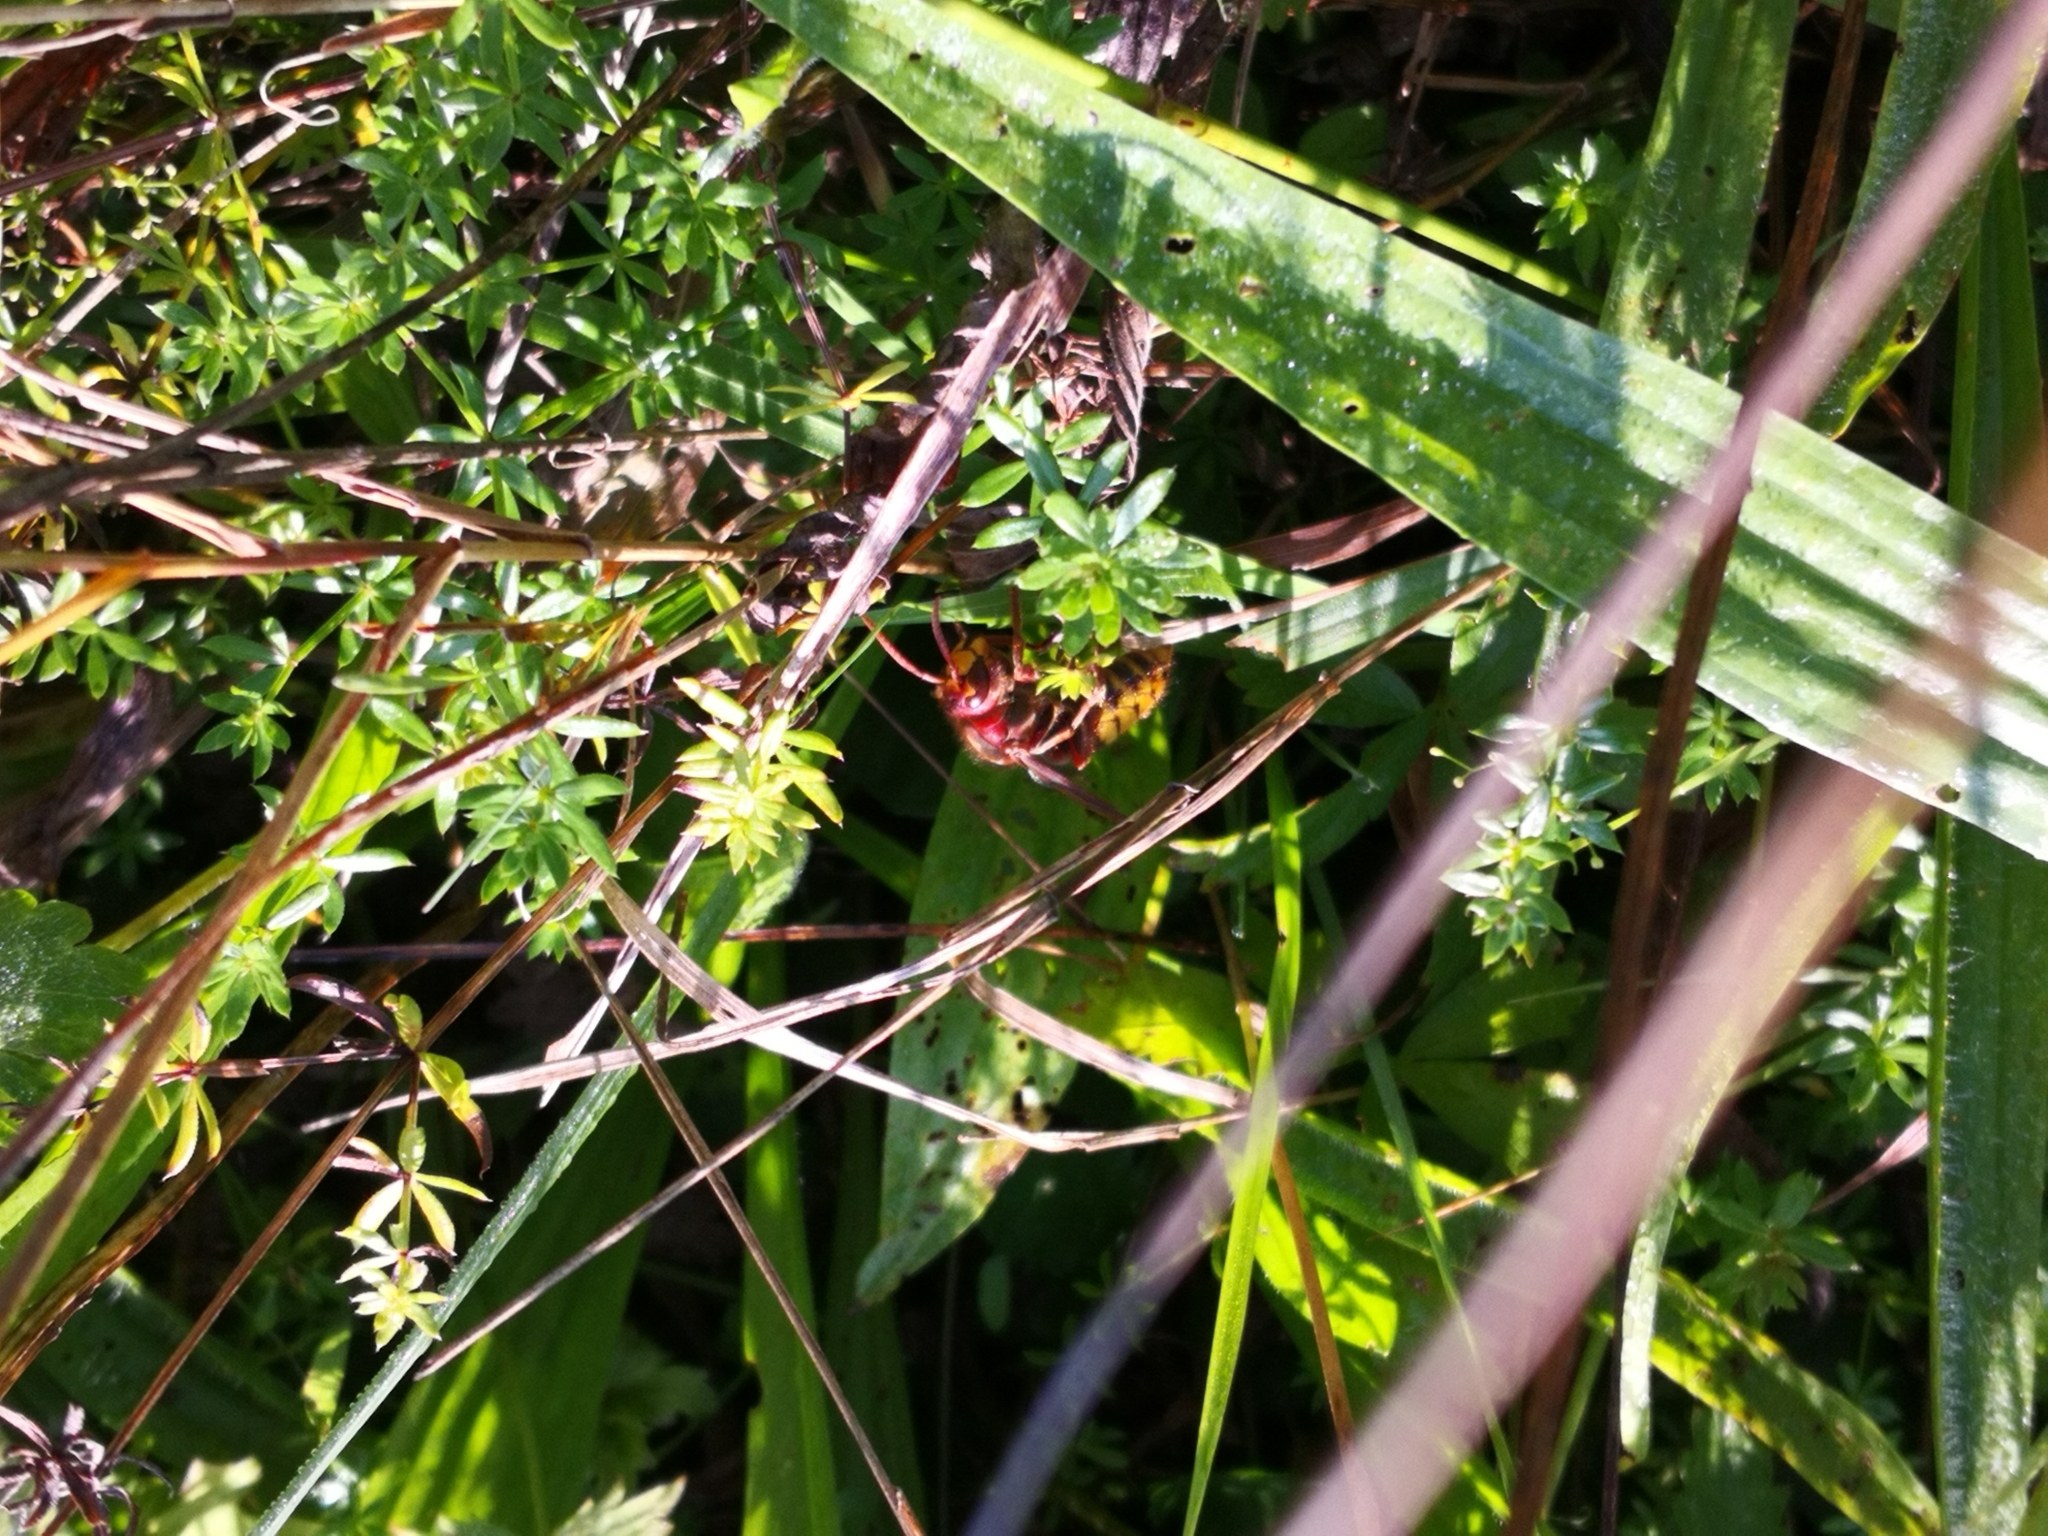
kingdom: Animalia
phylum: Arthropoda
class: Insecta
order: Hymenoptera
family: Vespidae
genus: Vespa
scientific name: Vespa crabro
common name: Hornet
